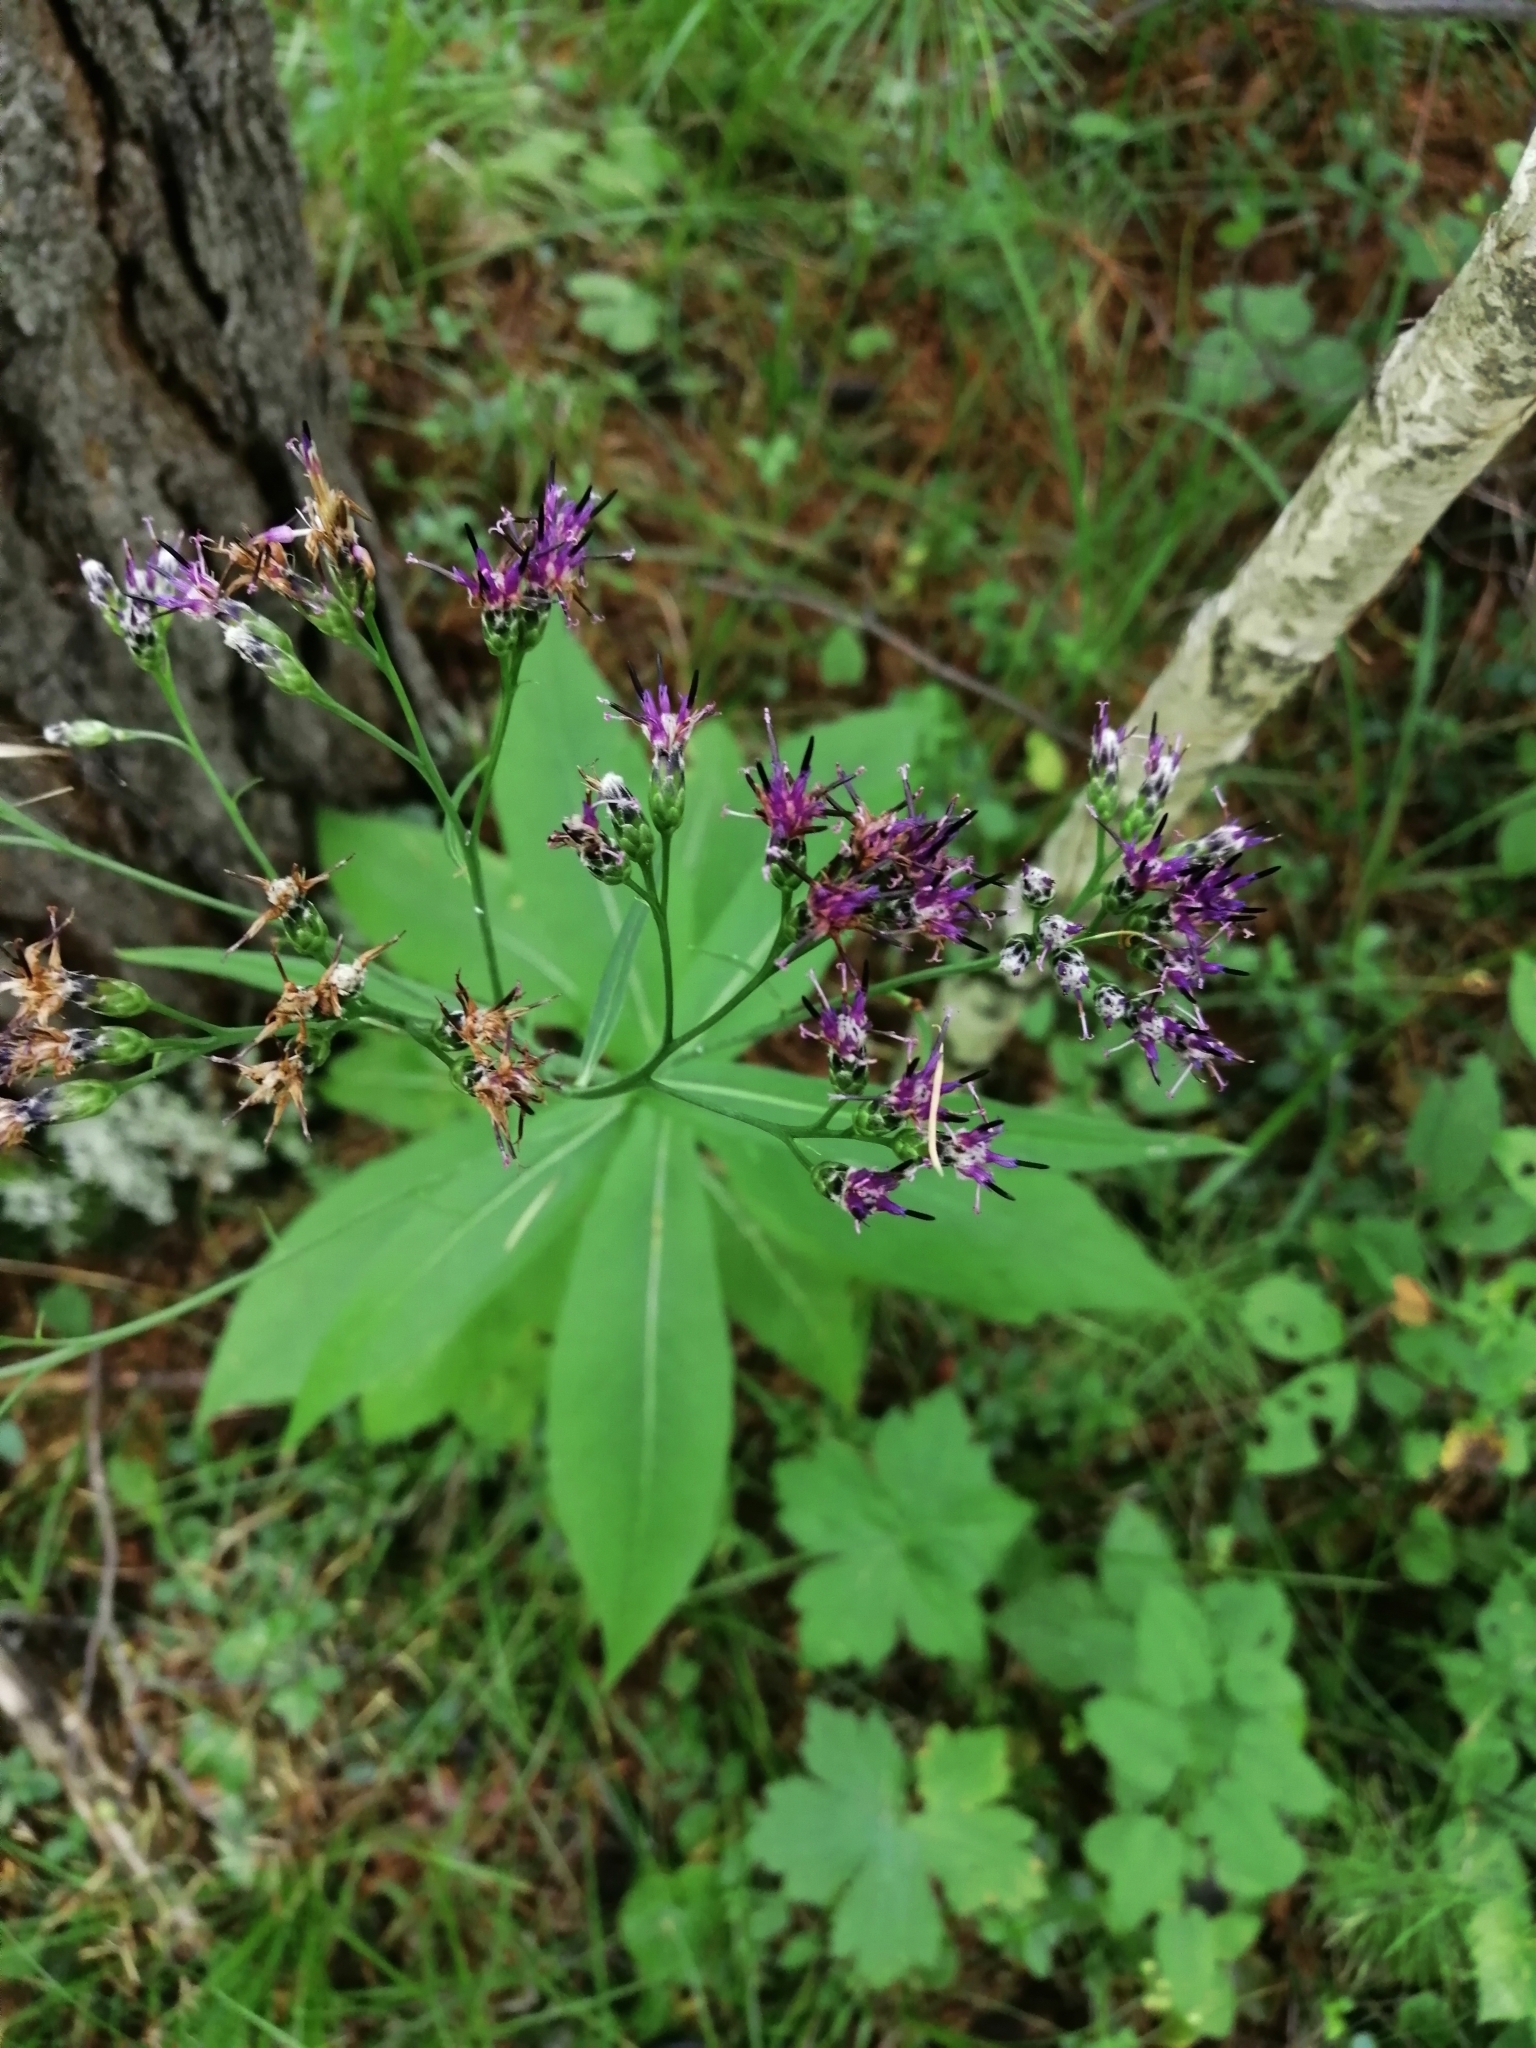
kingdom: Plantae
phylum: Tracheophyta
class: Magnoliopsida
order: Asterales
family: Asteraceae
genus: Saussurea
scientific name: Saussurea parviflora
